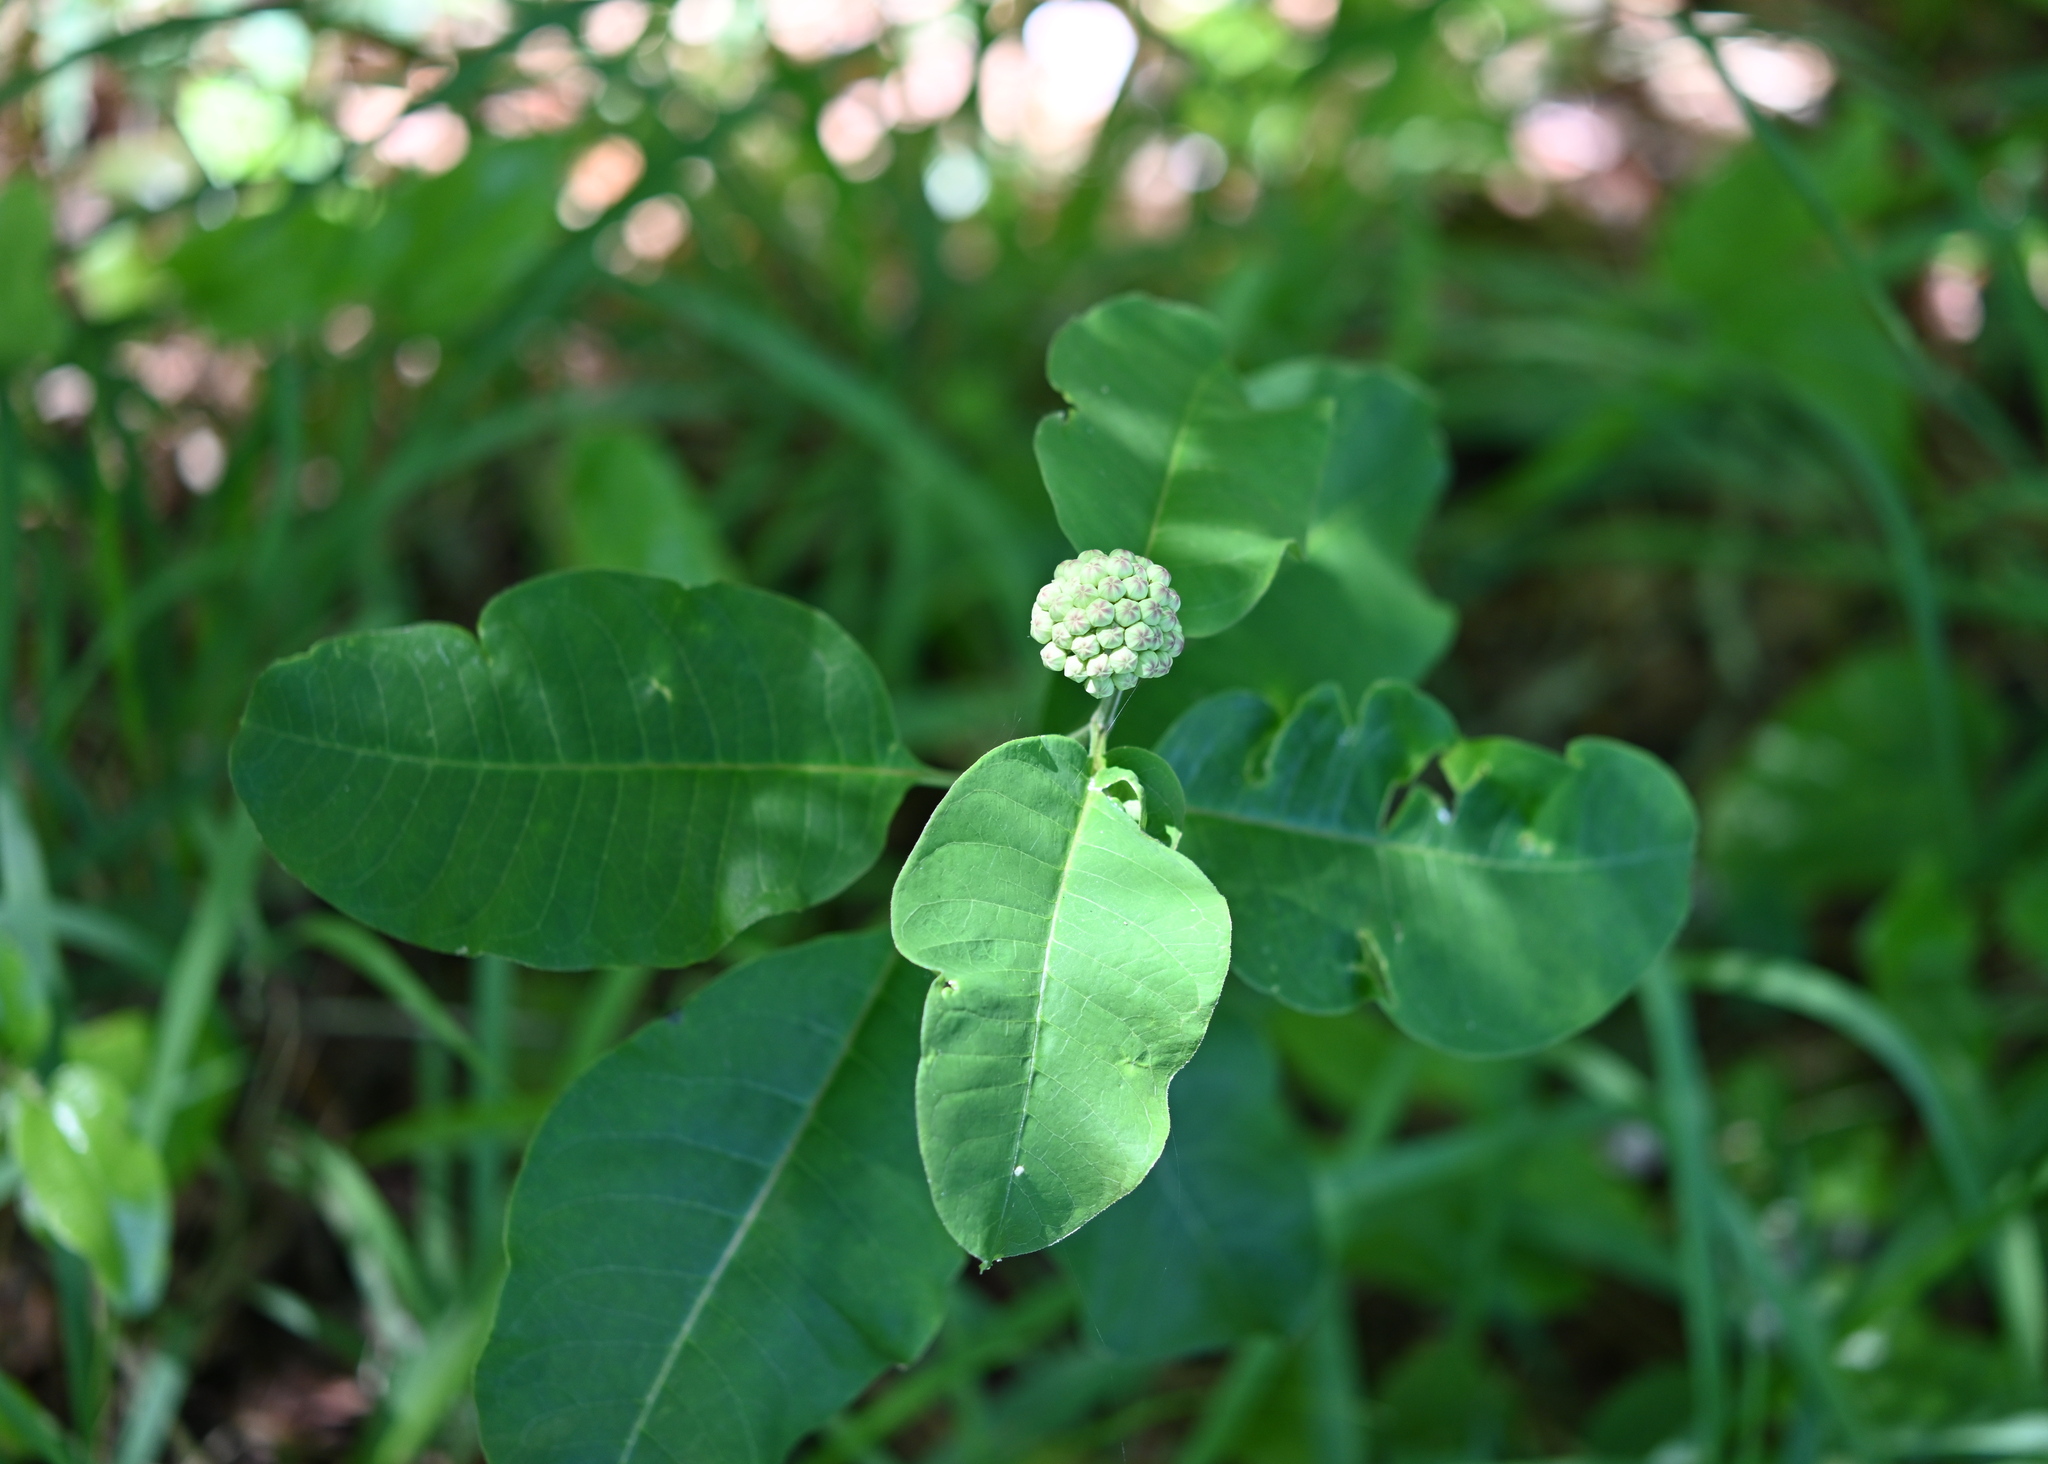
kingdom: Plantae
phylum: Tracheophyta
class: Magnoliopsida
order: Gentianales
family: Apocynaceae
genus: Asclepias
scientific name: Asclepias variegata
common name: Variegated milkweed
